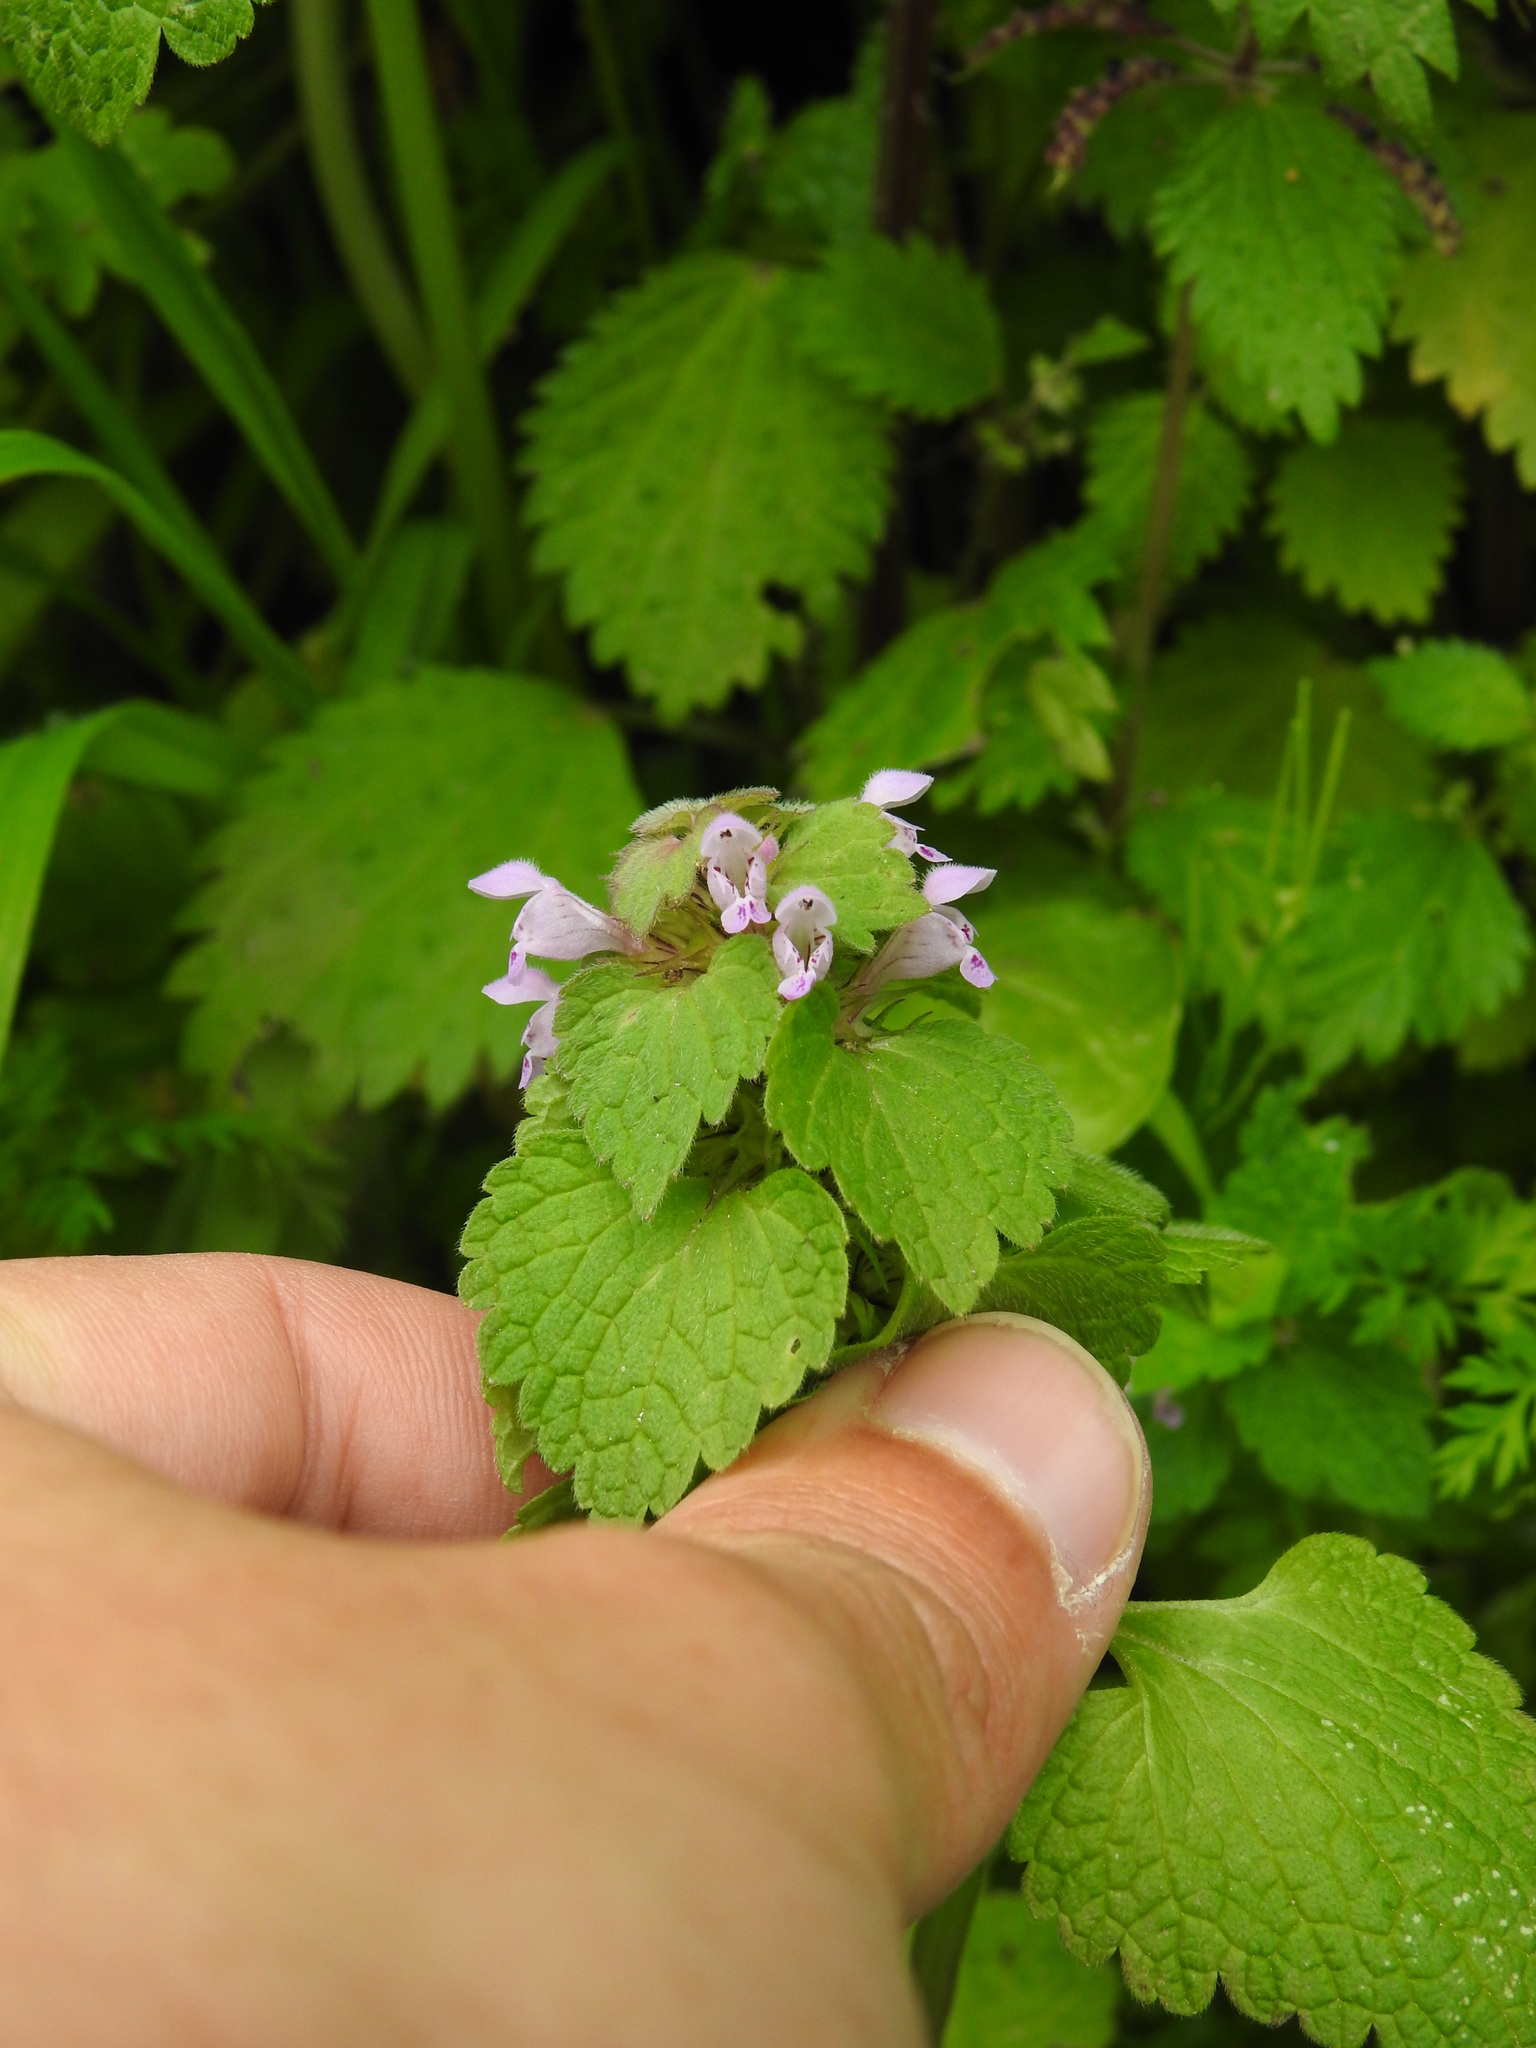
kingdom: Plantae
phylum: Tracheophyta
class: Magnoliopsida
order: Lamiales
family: Lamiaceae
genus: Lamium
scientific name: Lamium purpureum
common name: Red dead-nettle
